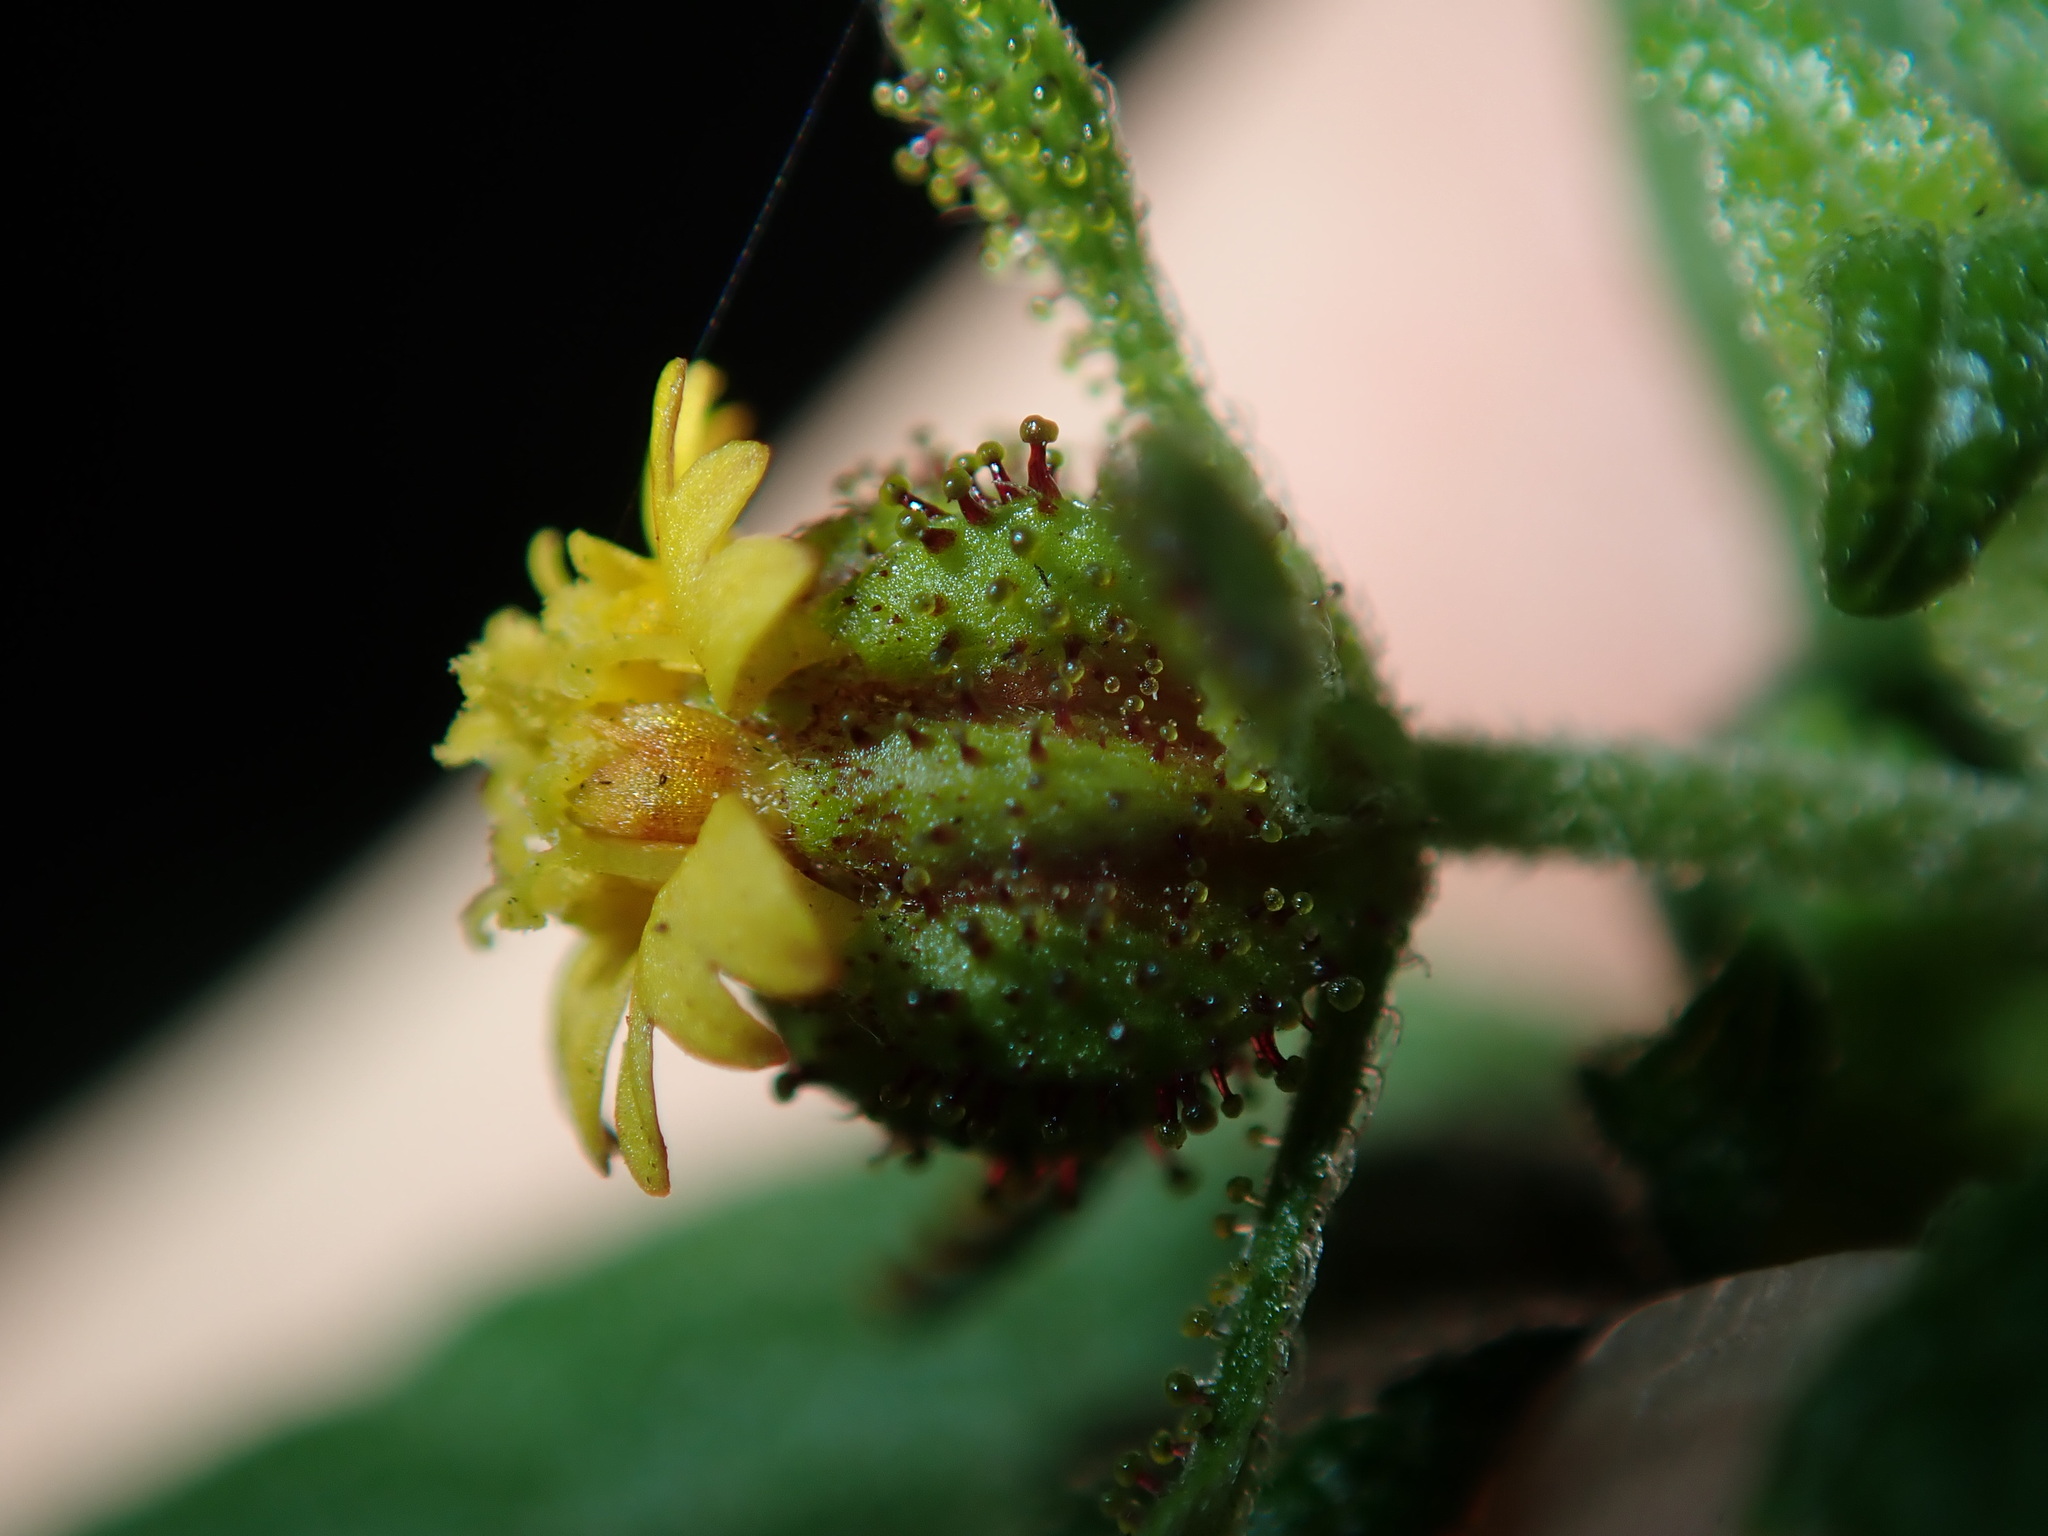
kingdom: Plantae
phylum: Tracheophyta
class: Magnoliopsida
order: Asterales
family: Asteraceae
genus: Sigesbeckia
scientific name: Sigesbeckia orientalis
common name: Eastern st paul's-wort
